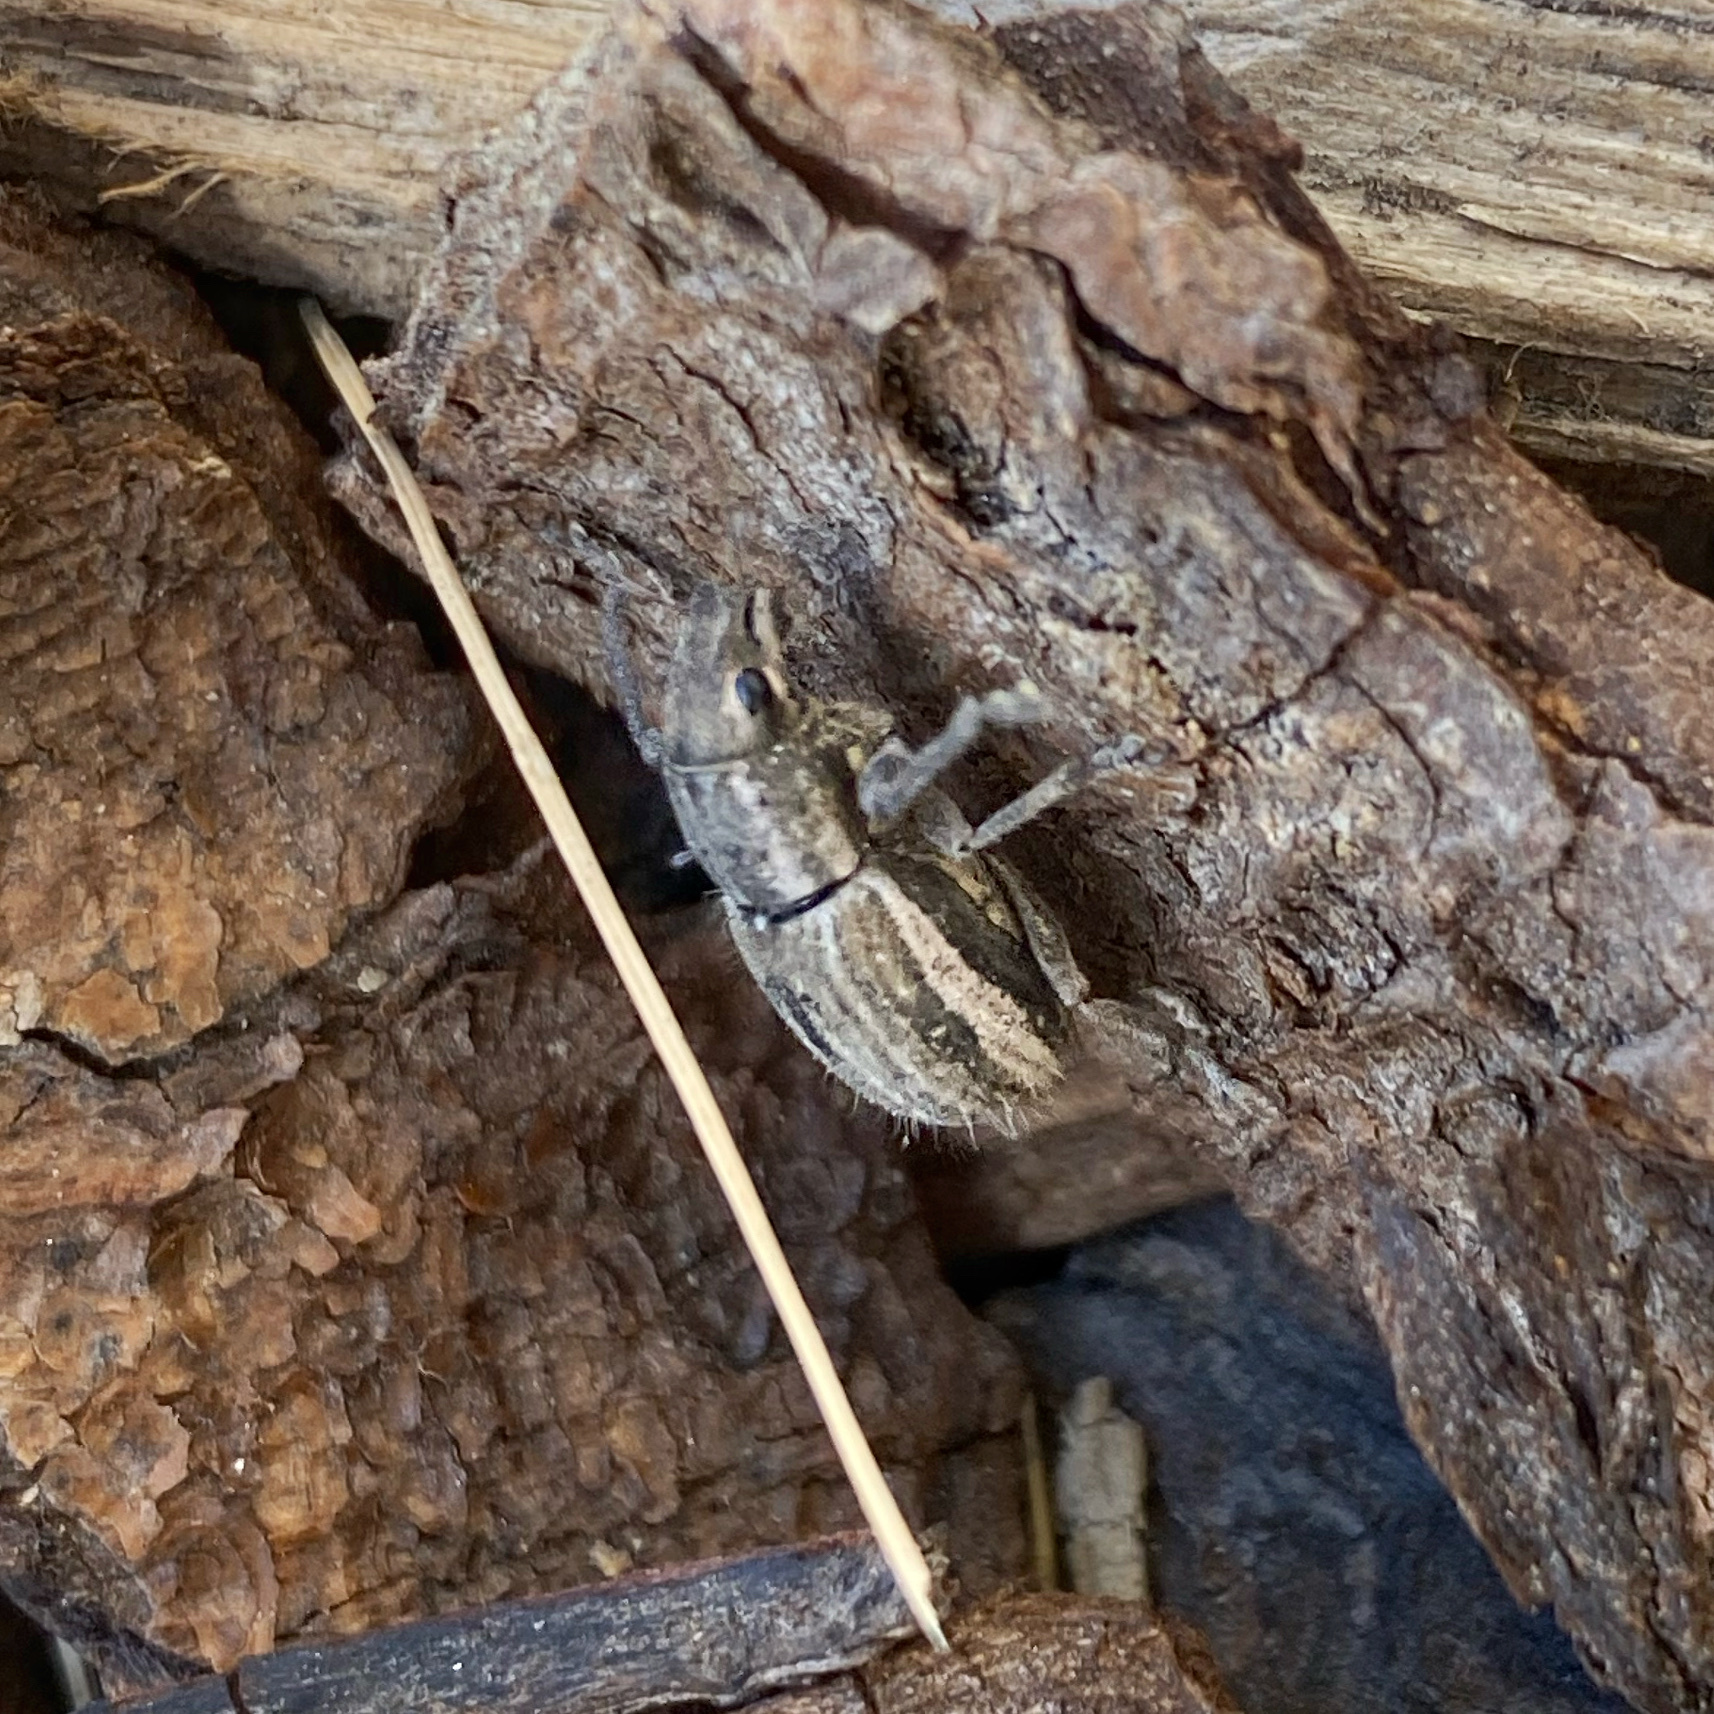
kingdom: Animalia
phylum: Arthropoda
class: Insecta
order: Coleoptera
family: Curculionidae
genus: Naupactus
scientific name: Naupactus leucoloma
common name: Whitefringed beetle
